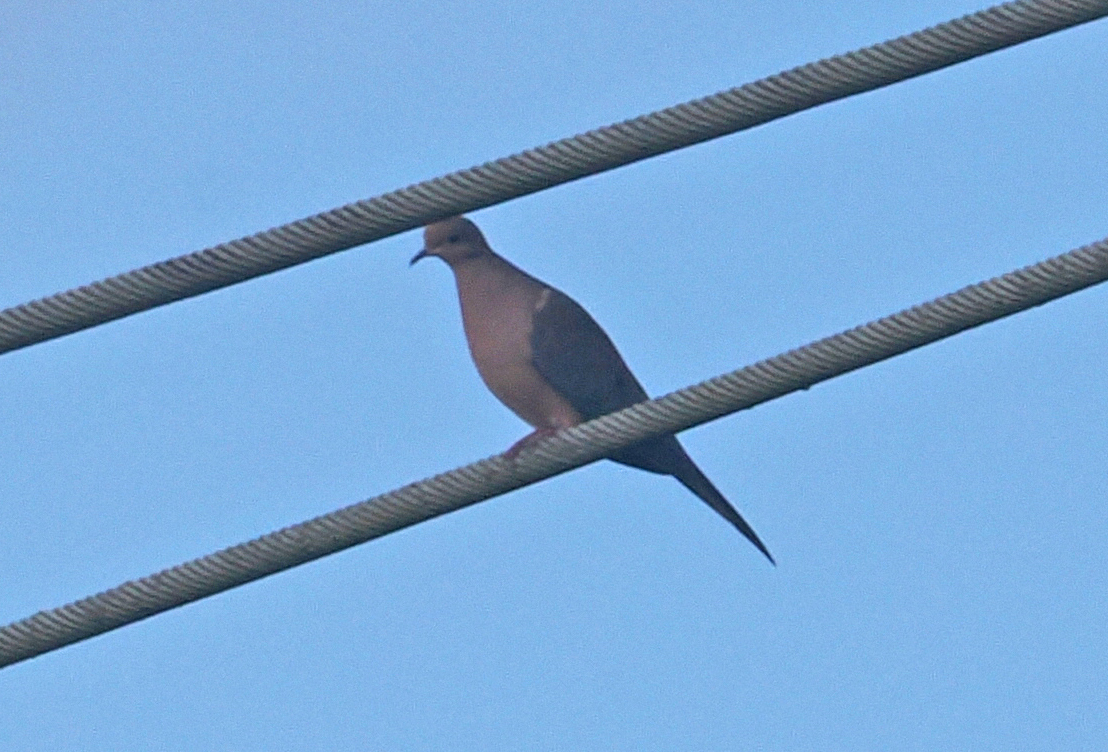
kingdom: Animalia
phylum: Chordata
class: Aves
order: Columbiformes
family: Columbidae
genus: Zenaida
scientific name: Zenaida macroura
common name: Mourning dove
